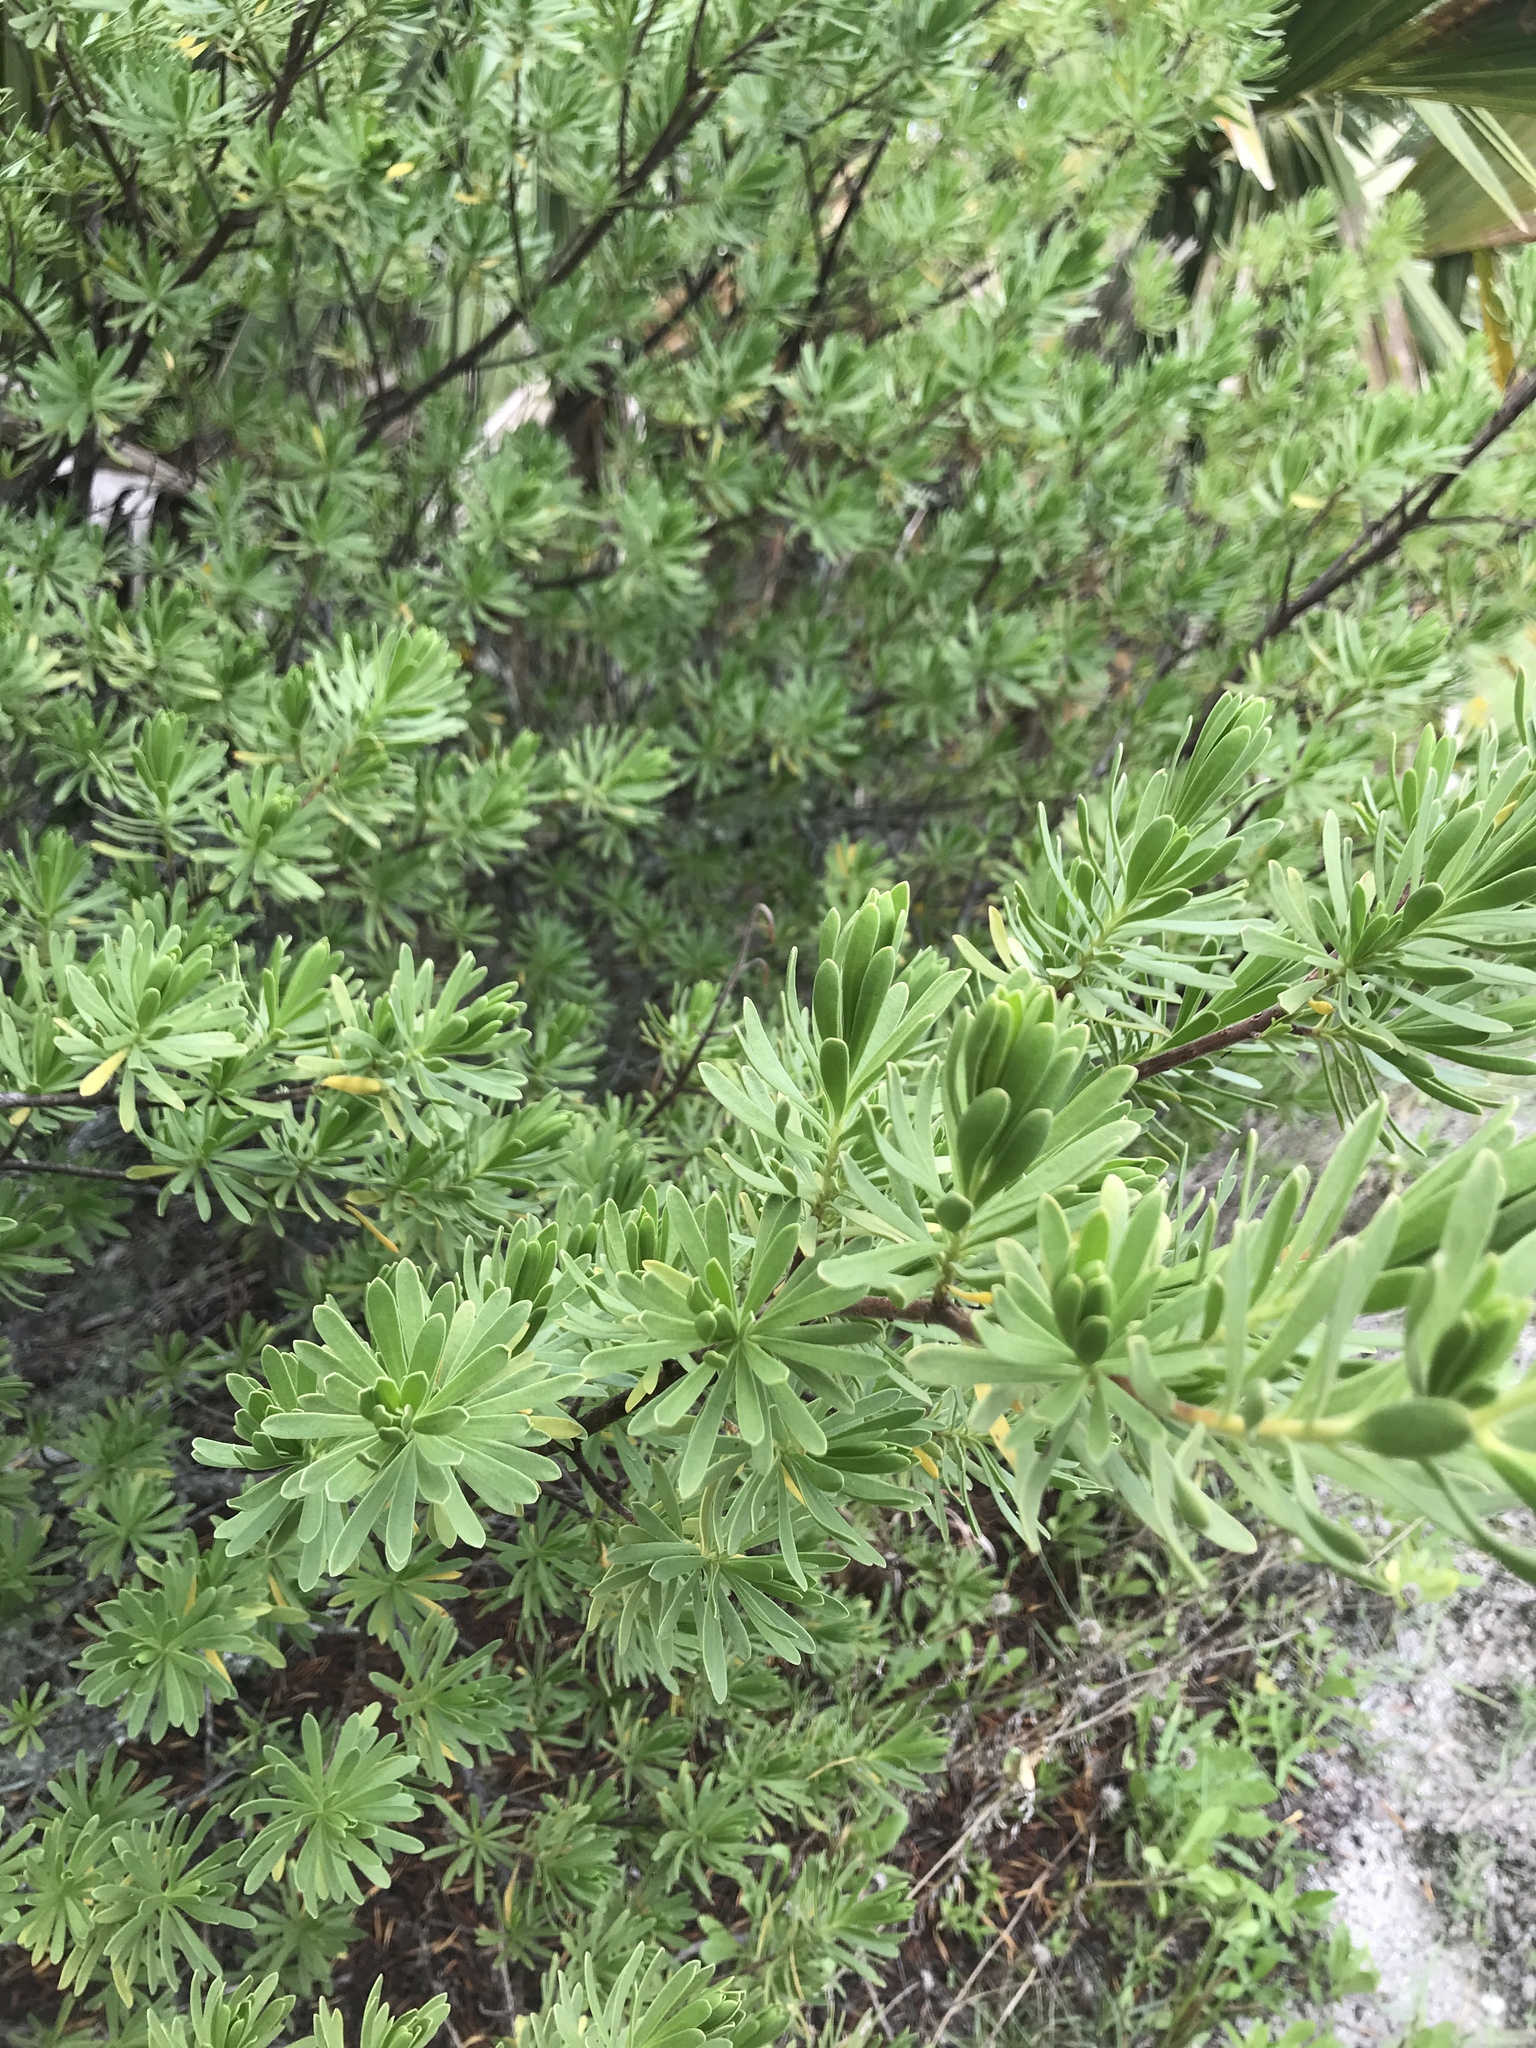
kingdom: Plantae
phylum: Tracheophyta
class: Magnoliopsida
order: Fabales
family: Surianaceae
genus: Suriana
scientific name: Suriana maritima
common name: Bay-cedar
